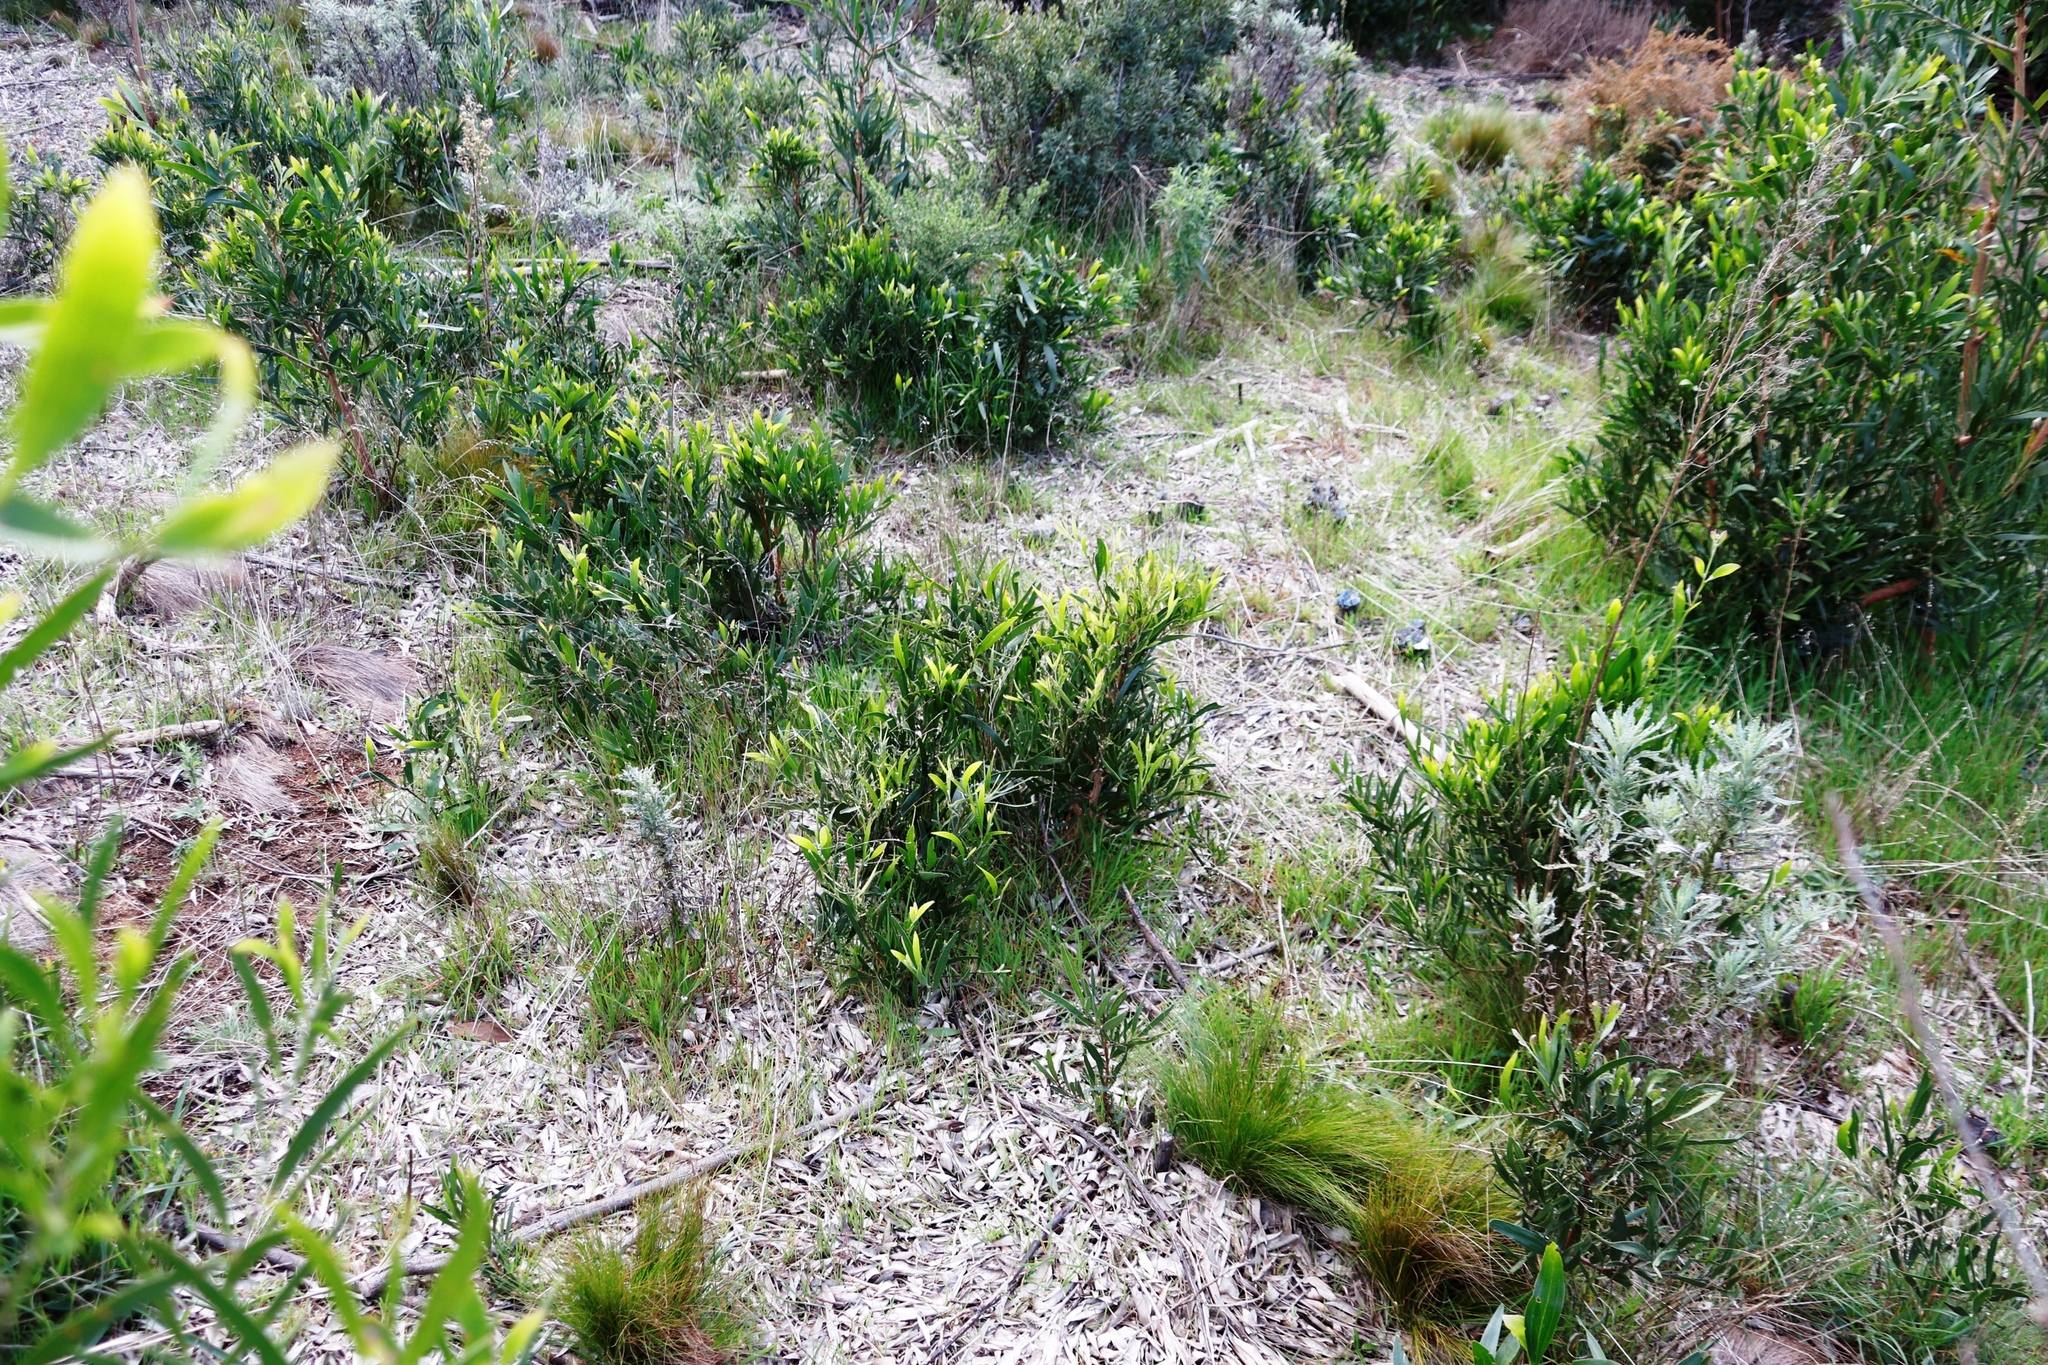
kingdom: Plantae
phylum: Tracheophyta
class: Magnoliopsida
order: Fabales
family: Fabaceae
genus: Acacia
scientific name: Acacia melanoxylon
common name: Blackwood
